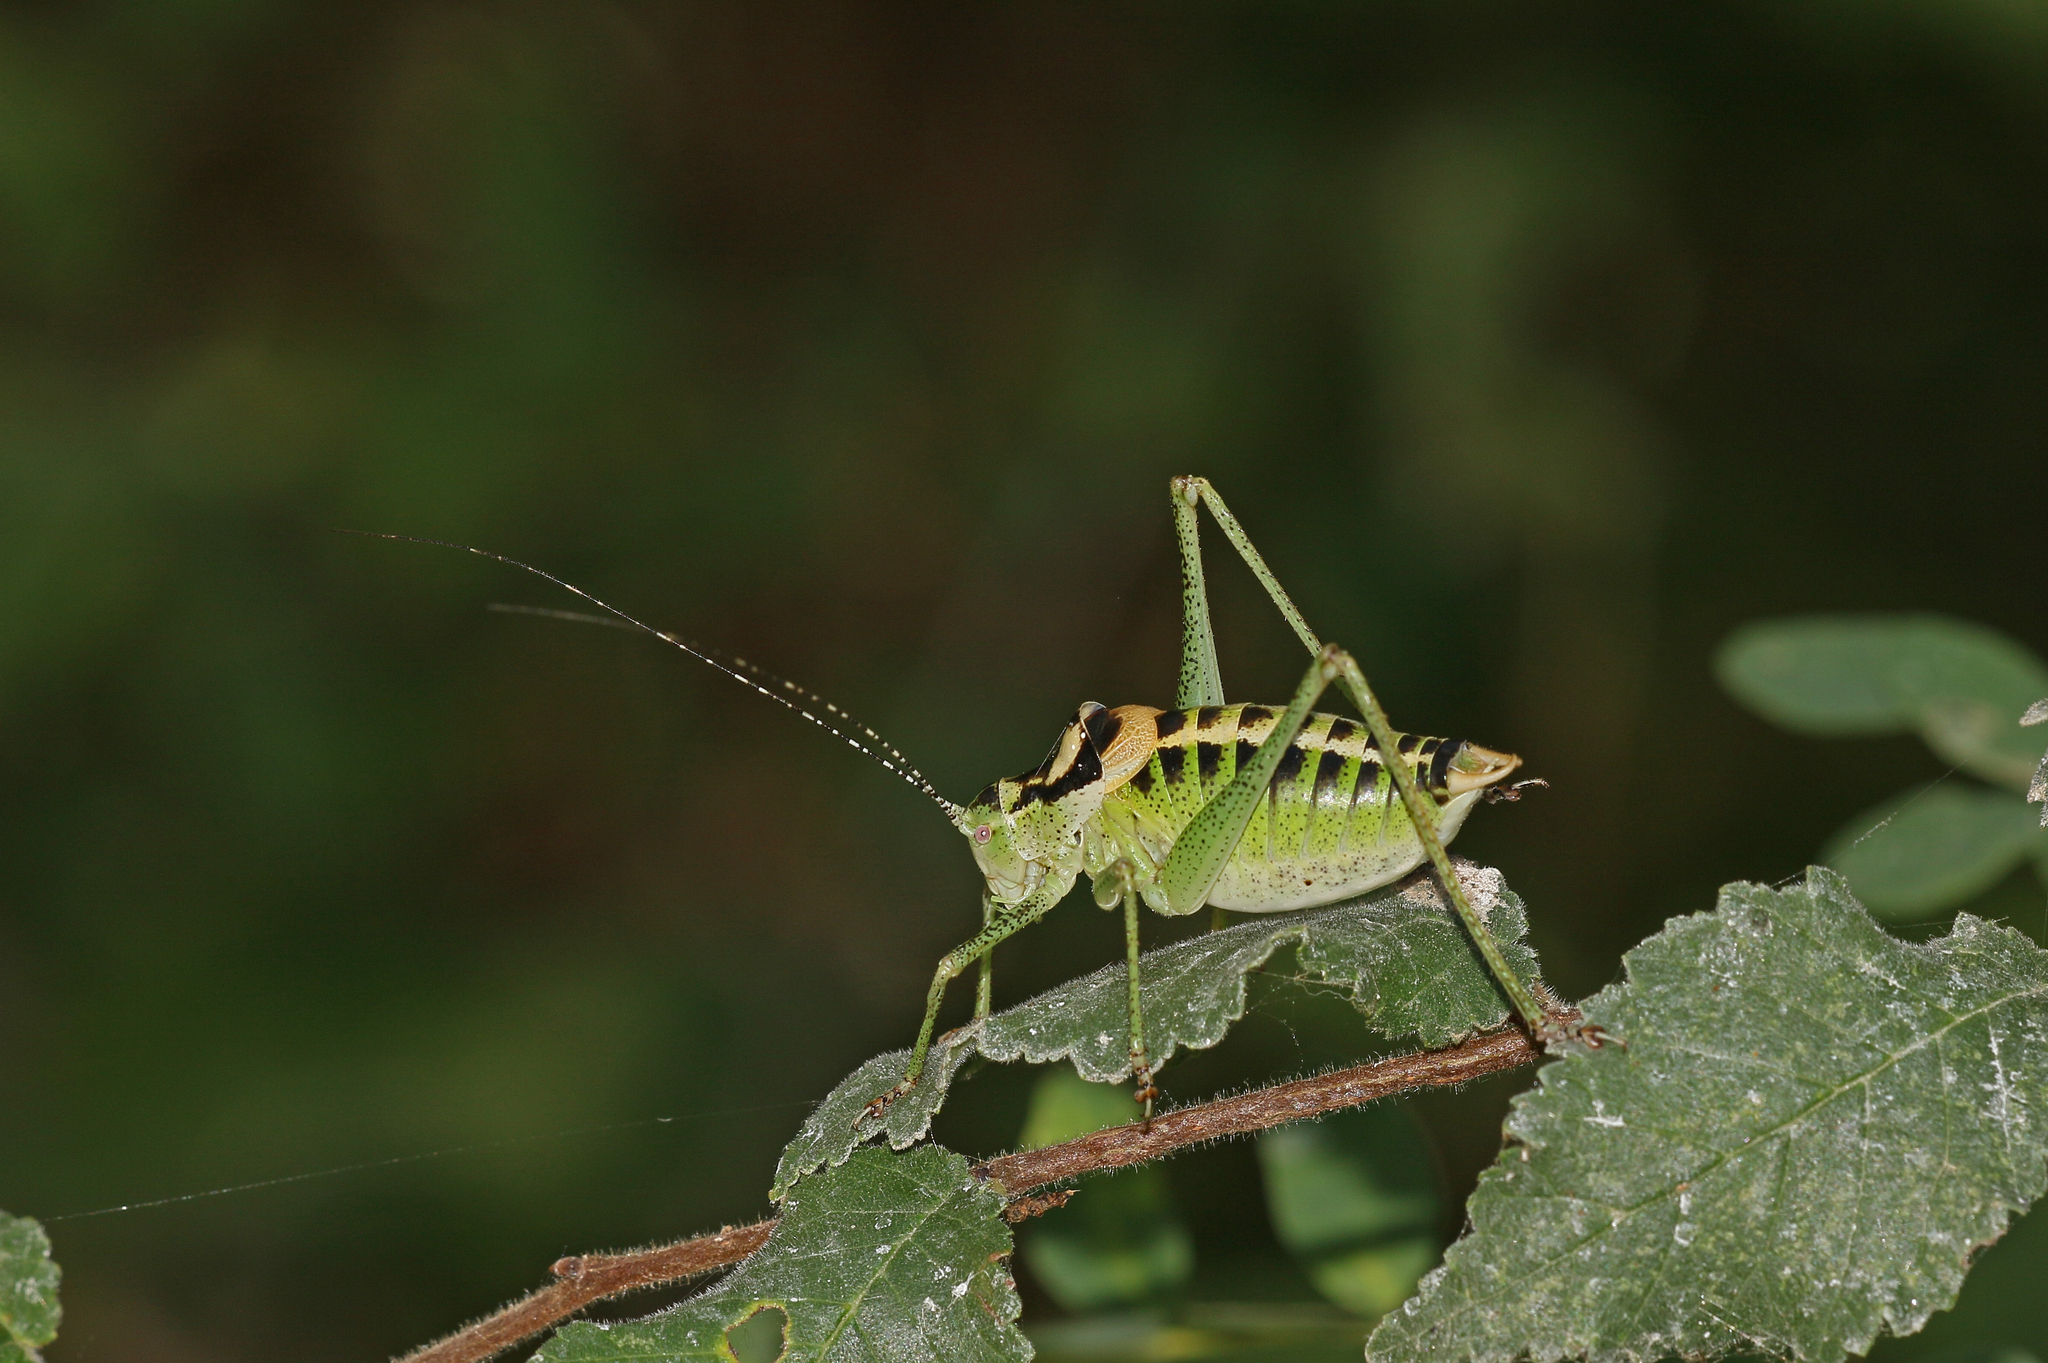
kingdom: Animalia
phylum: Arthropoda
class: Insecta
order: Orthoptera
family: Tettigoniidae
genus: Poecilimon
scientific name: Poecilimon ornatus
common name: Ornate bright bush-cricket
